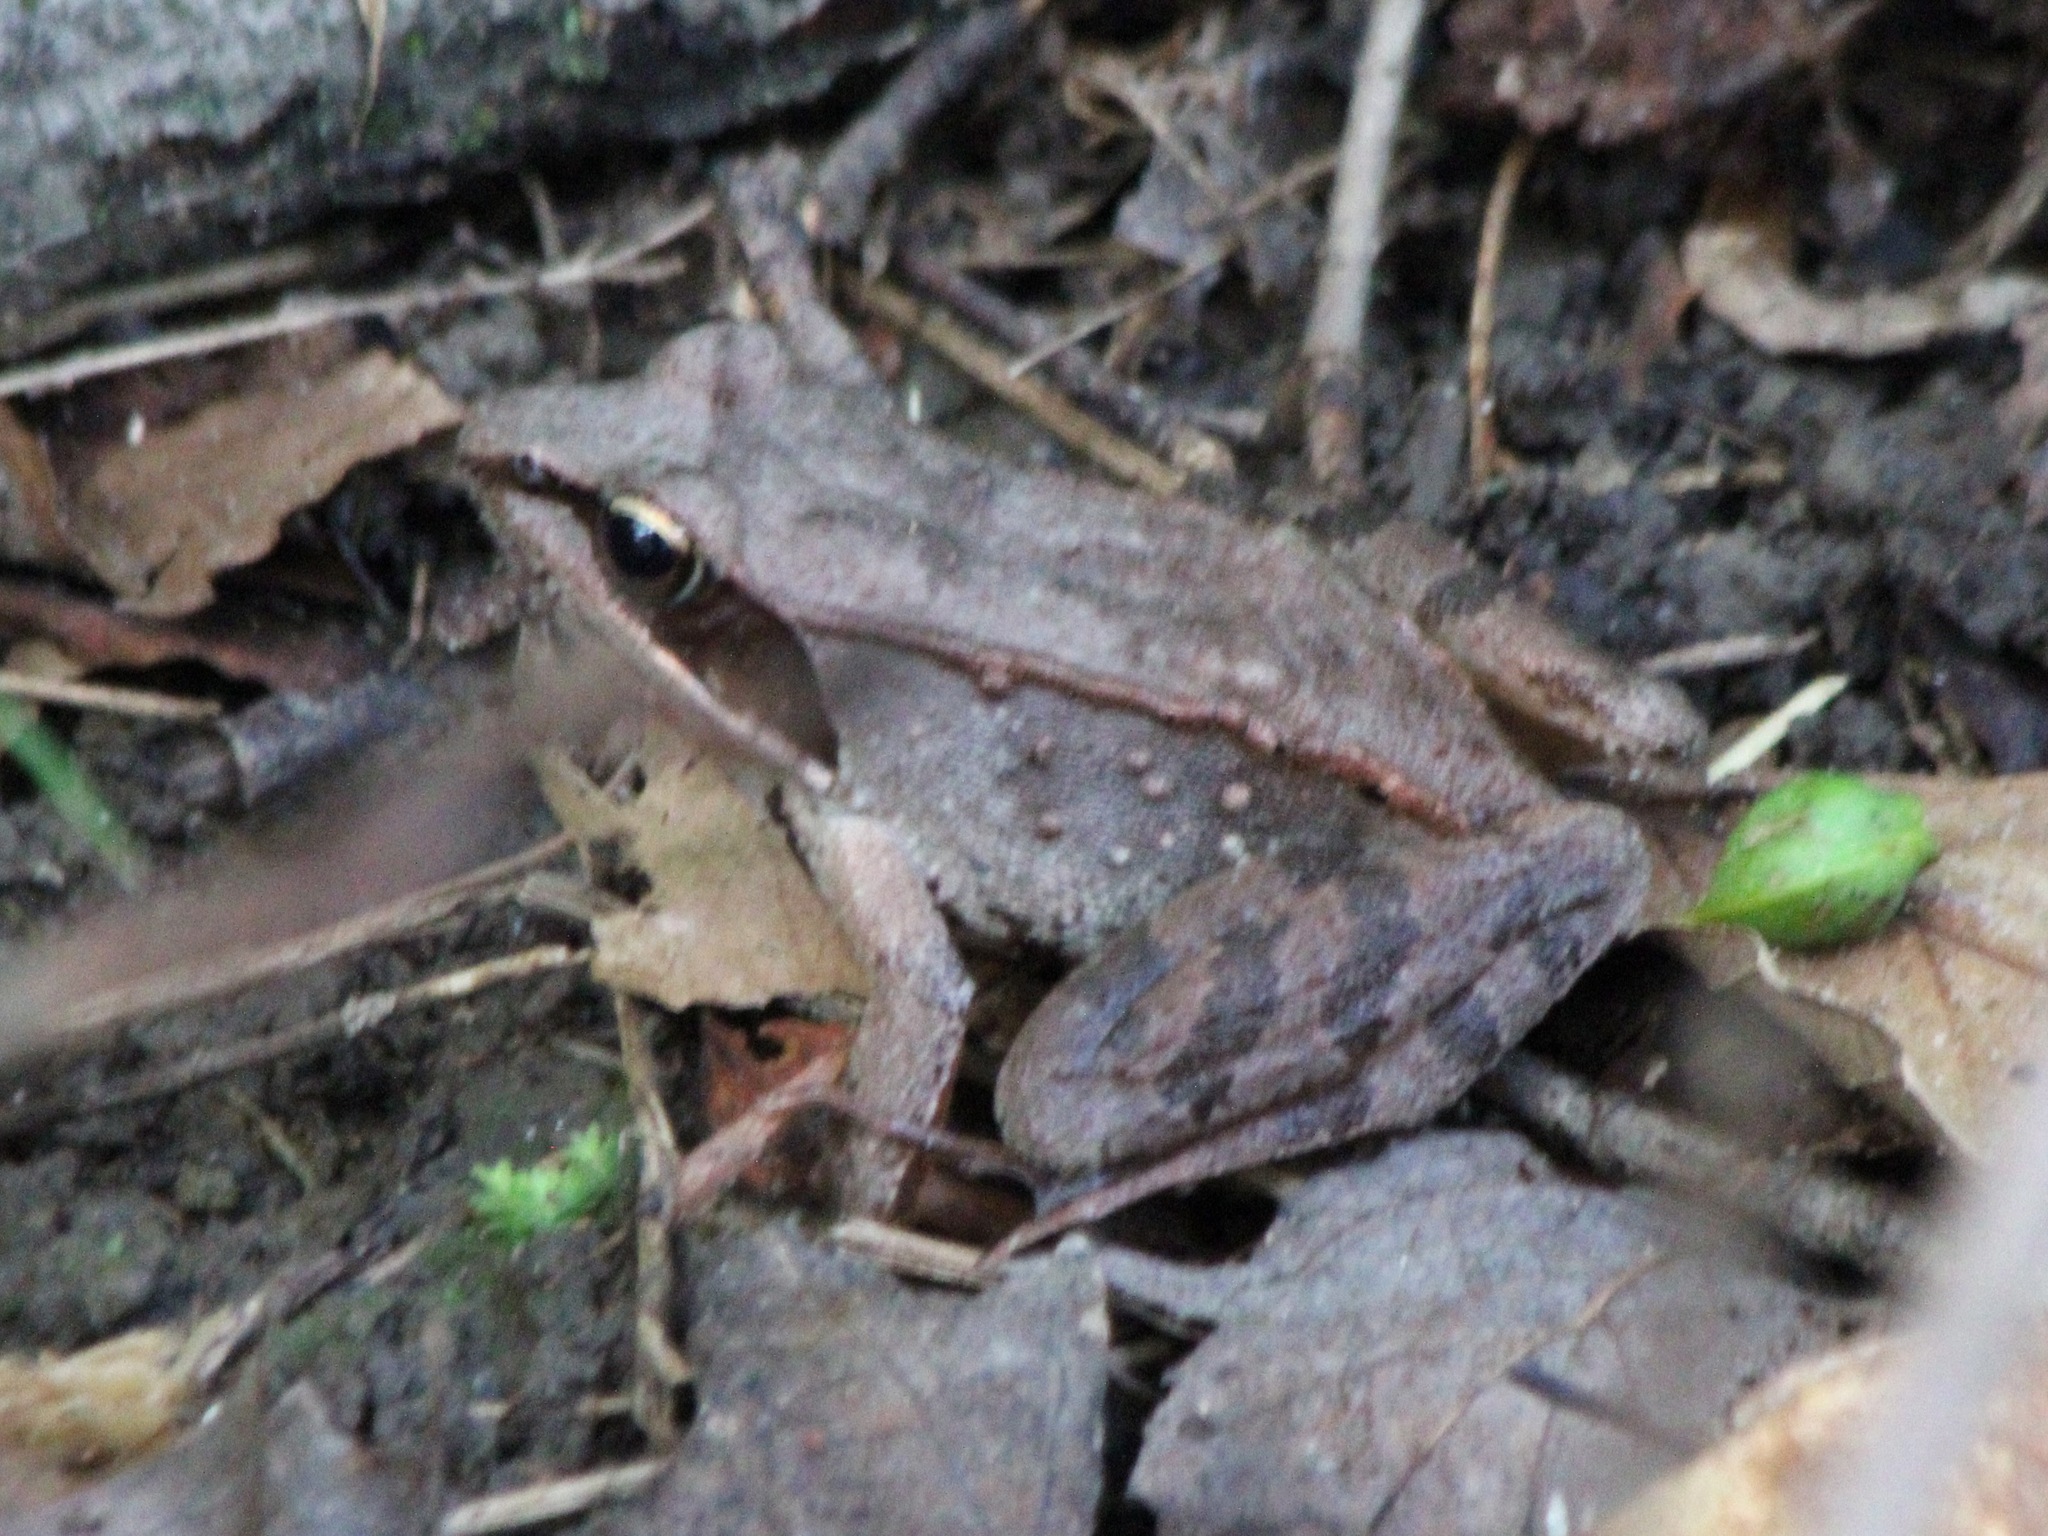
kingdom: Animalia
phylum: Chordata
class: Amphibia
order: Anura
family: Ranidae
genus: Lithobates
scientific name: Lithobates sylvaticus
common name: Wood frog
